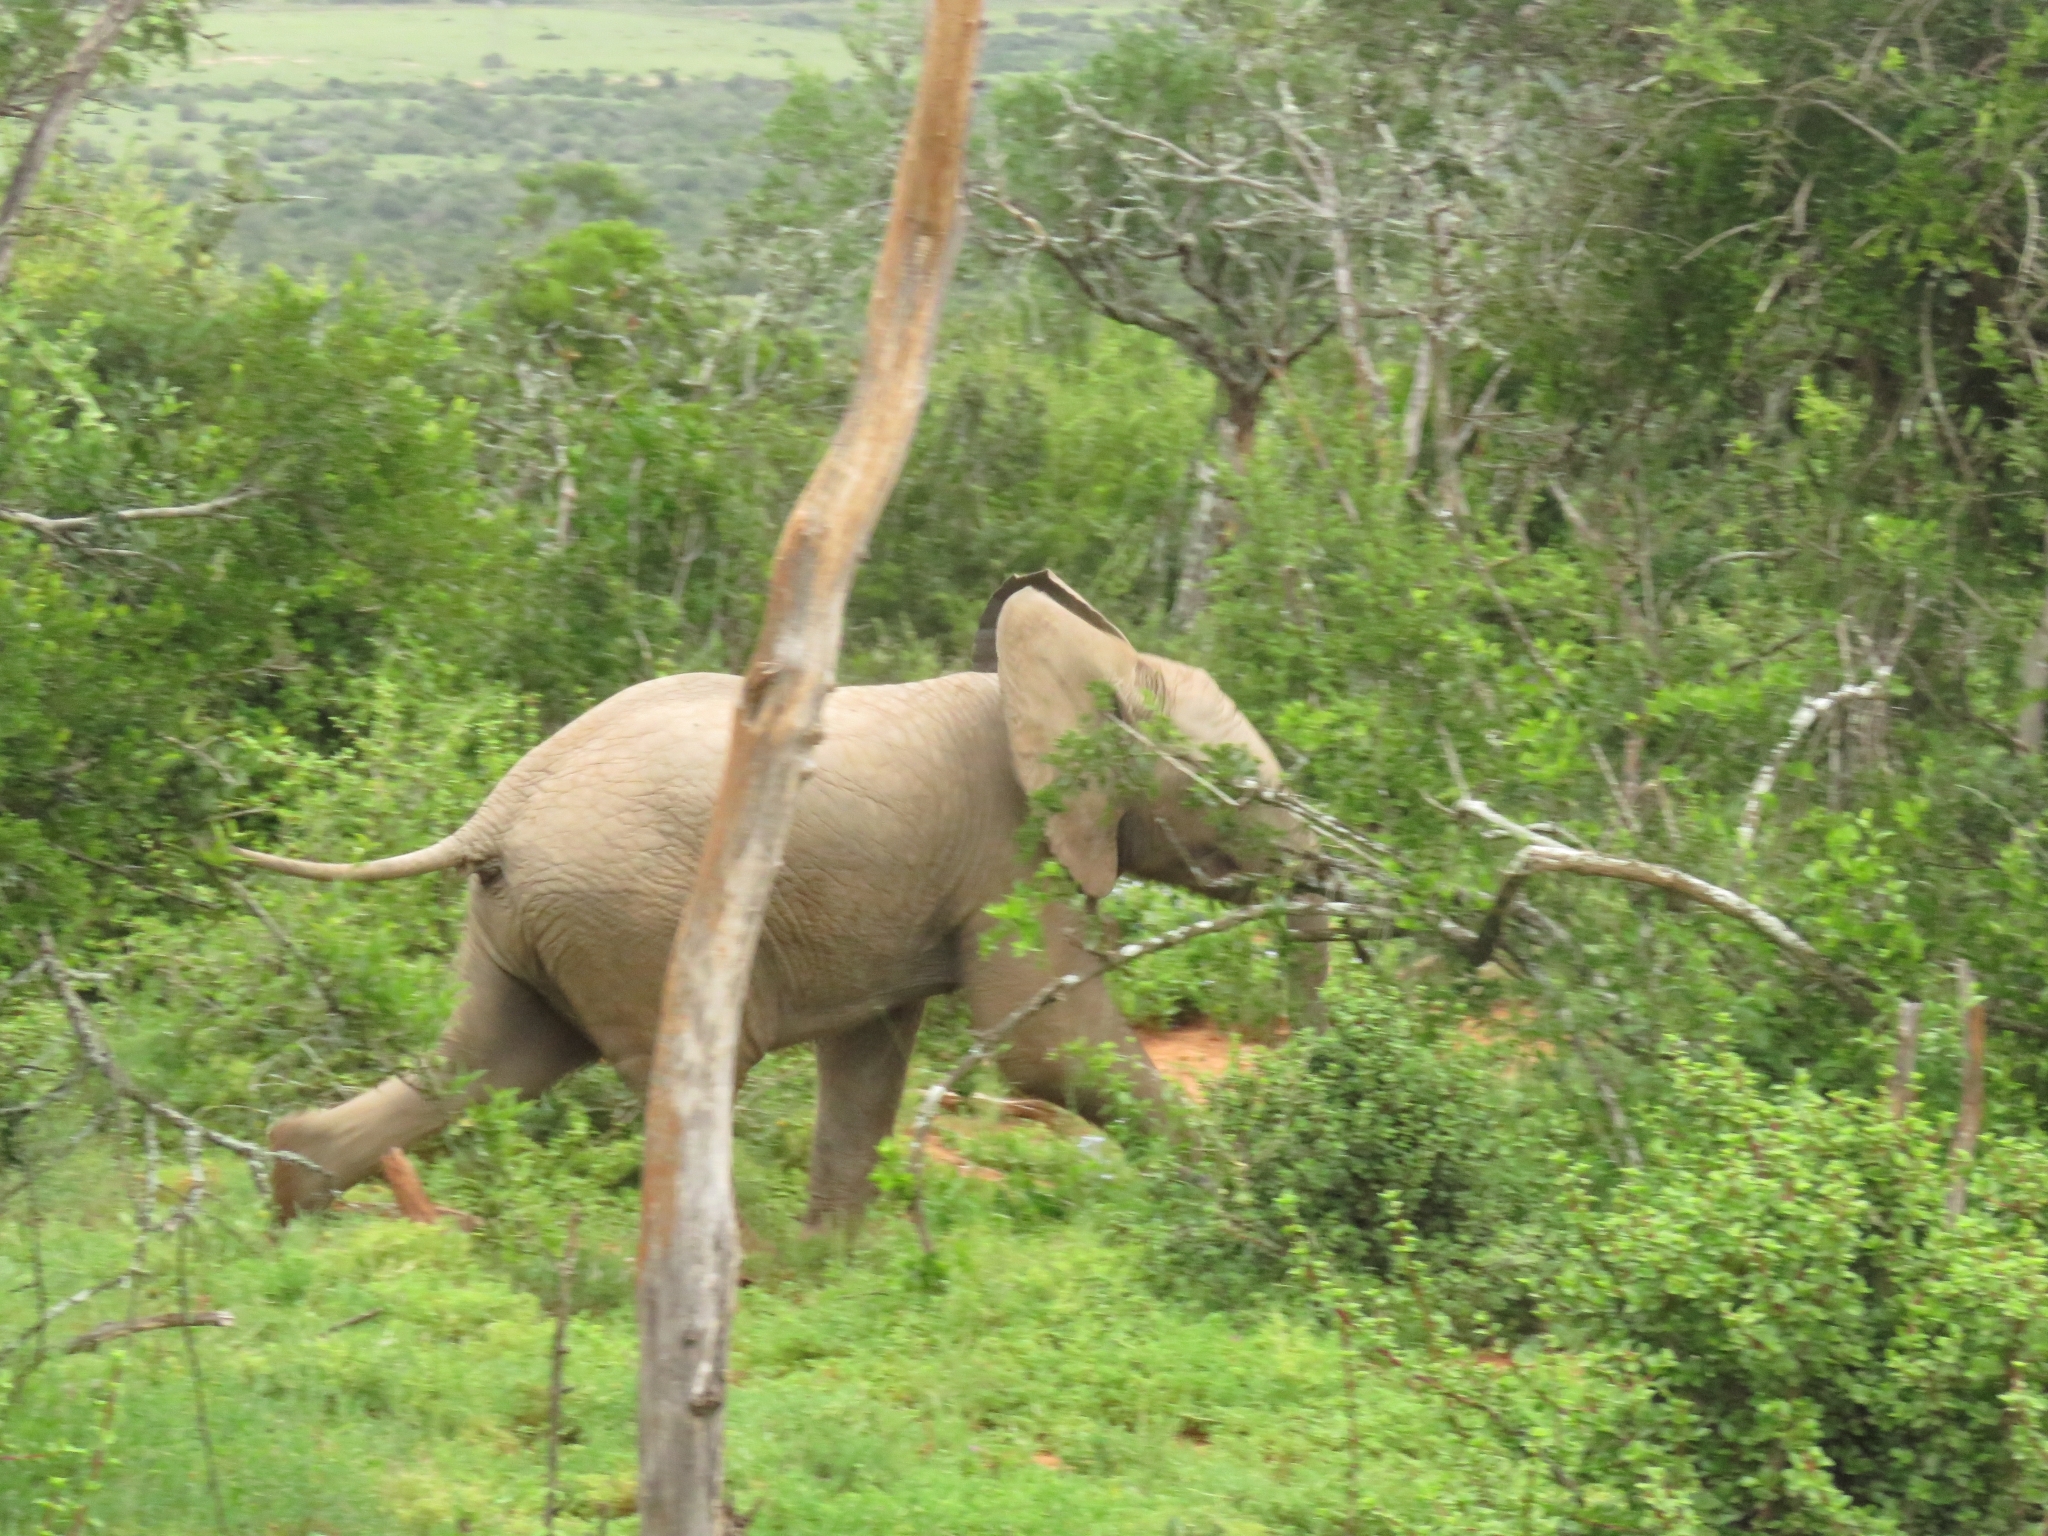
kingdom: Animalia
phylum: Chordata
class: Mammalia
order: Proboscidea
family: Elephantidae
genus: Loxodonta
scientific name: Loxodonta africana
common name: African elephant
